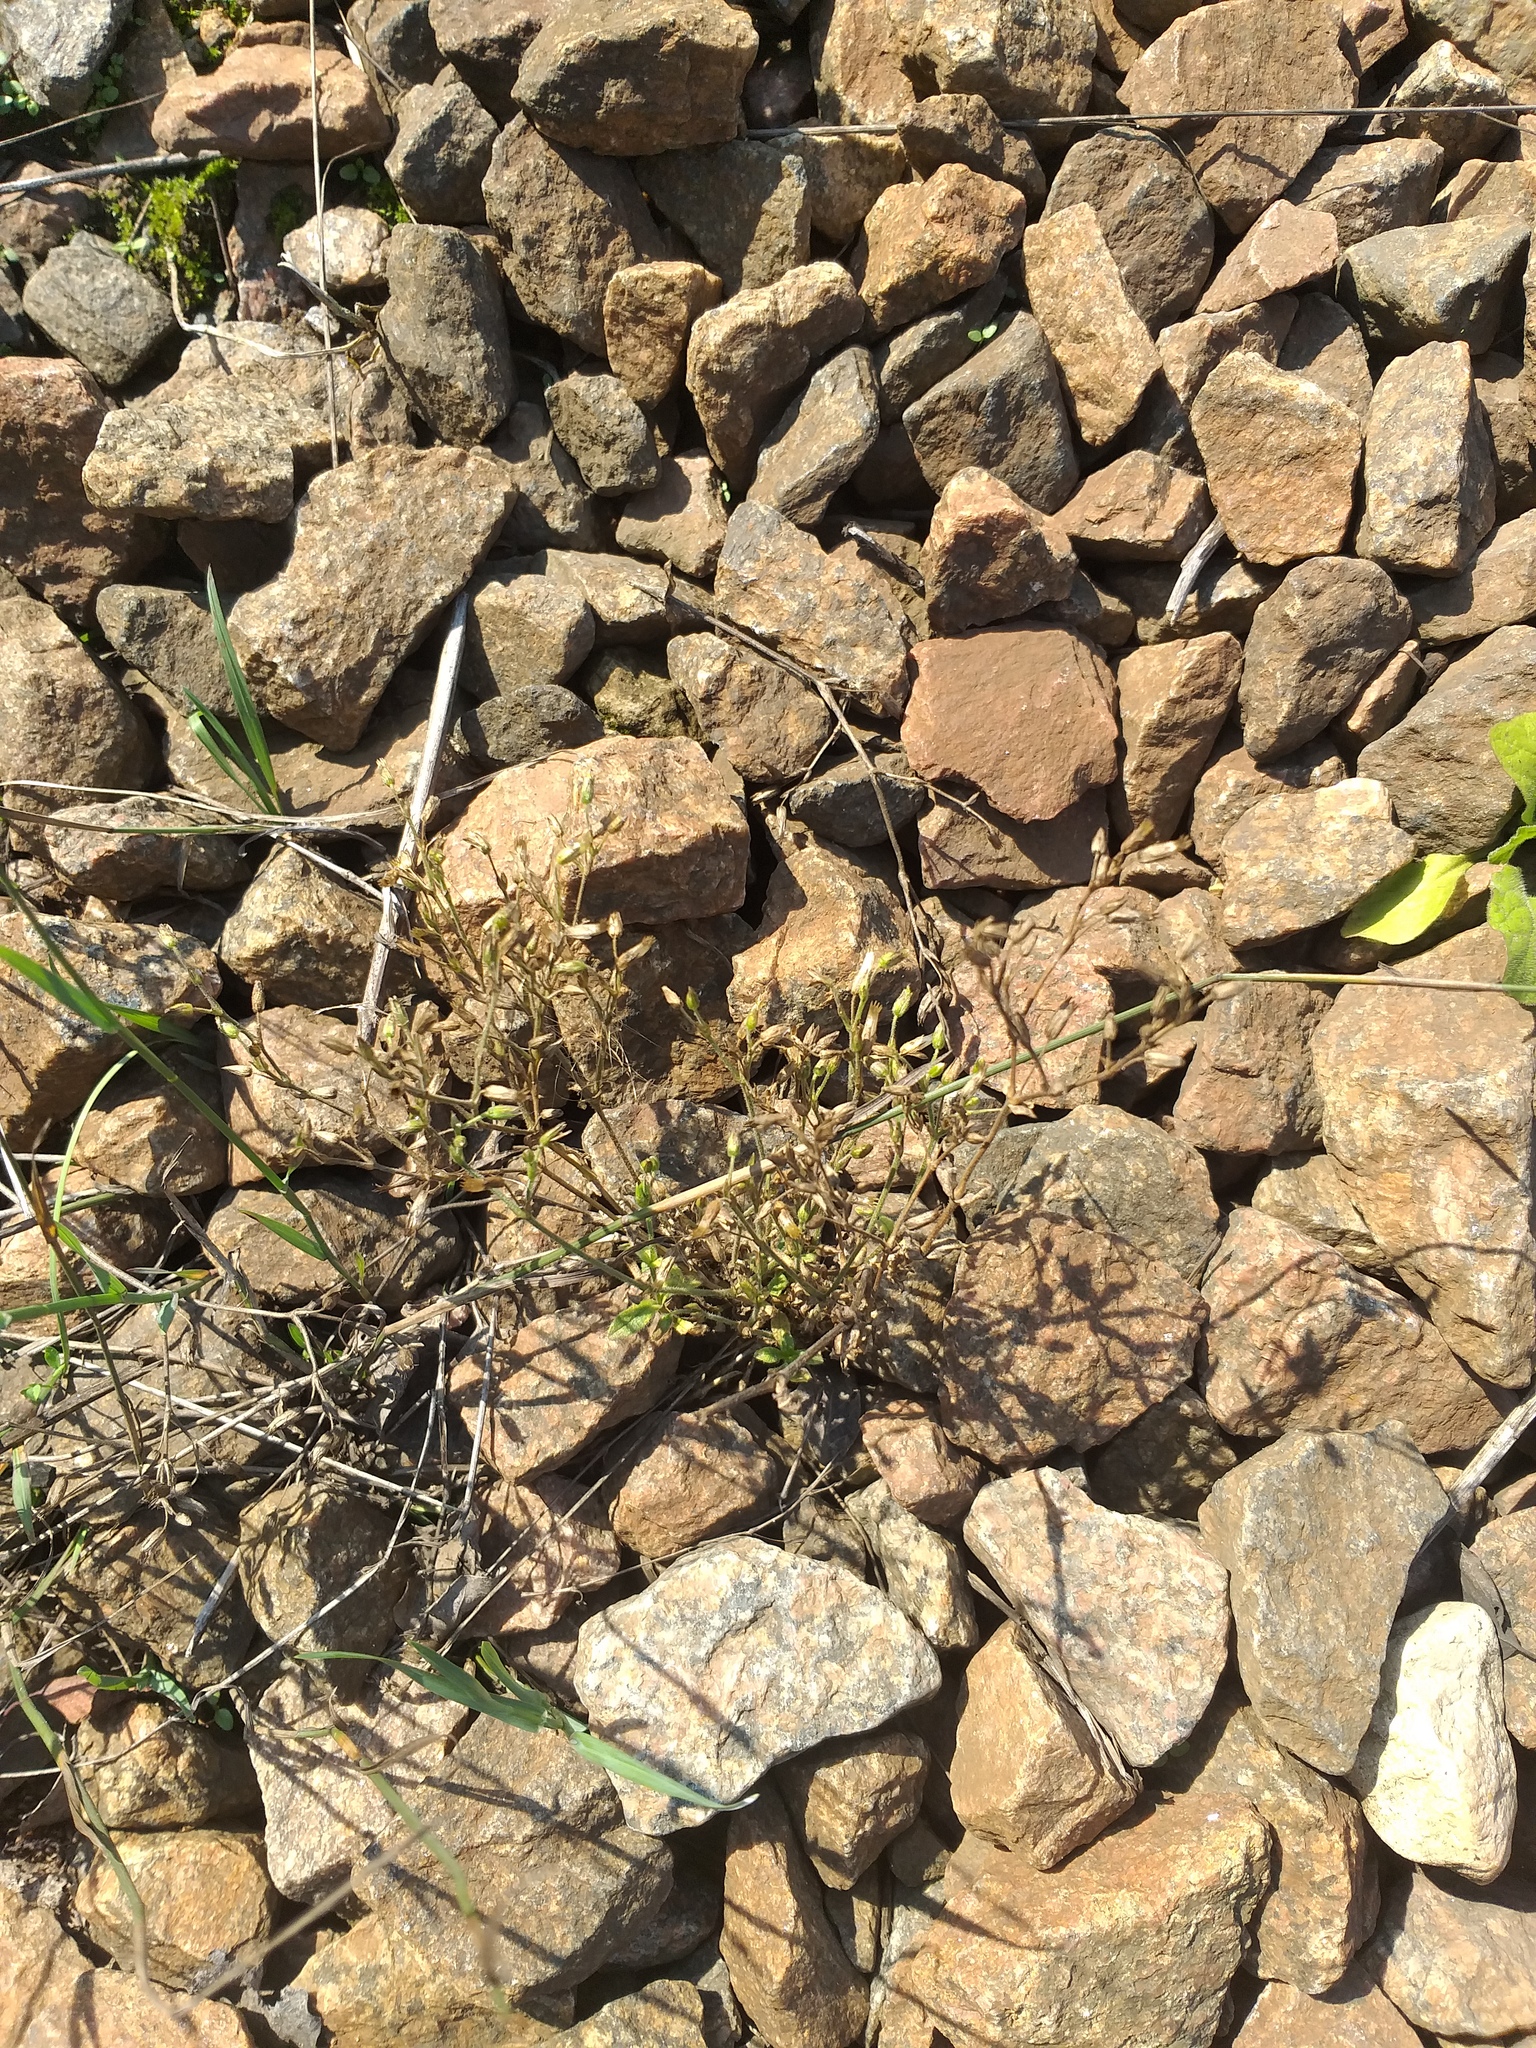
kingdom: Plantae
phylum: Tracheophyta
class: Magnoliopsida
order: Caryophyllales
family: Caryophyllaceae
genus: Cerastium
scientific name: Cerastium holosteoides
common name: Big chickweed
